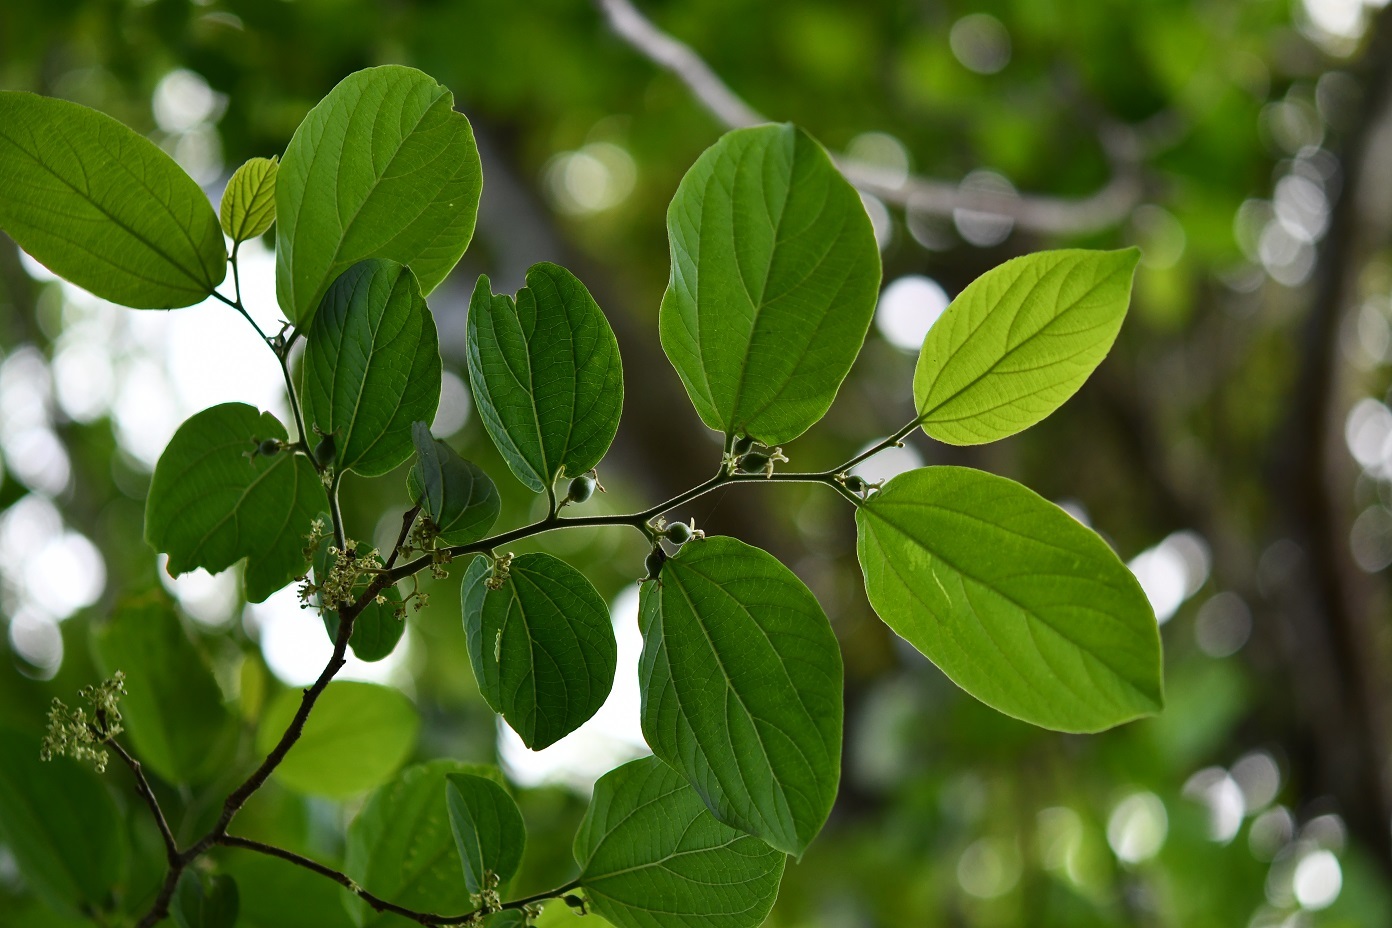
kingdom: Plantae
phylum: Tracheophyta
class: Magnoliopsida
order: Rosales
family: Cannabaceae
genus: Celtis
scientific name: Celtis iguanaea
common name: Iguana hackberry
